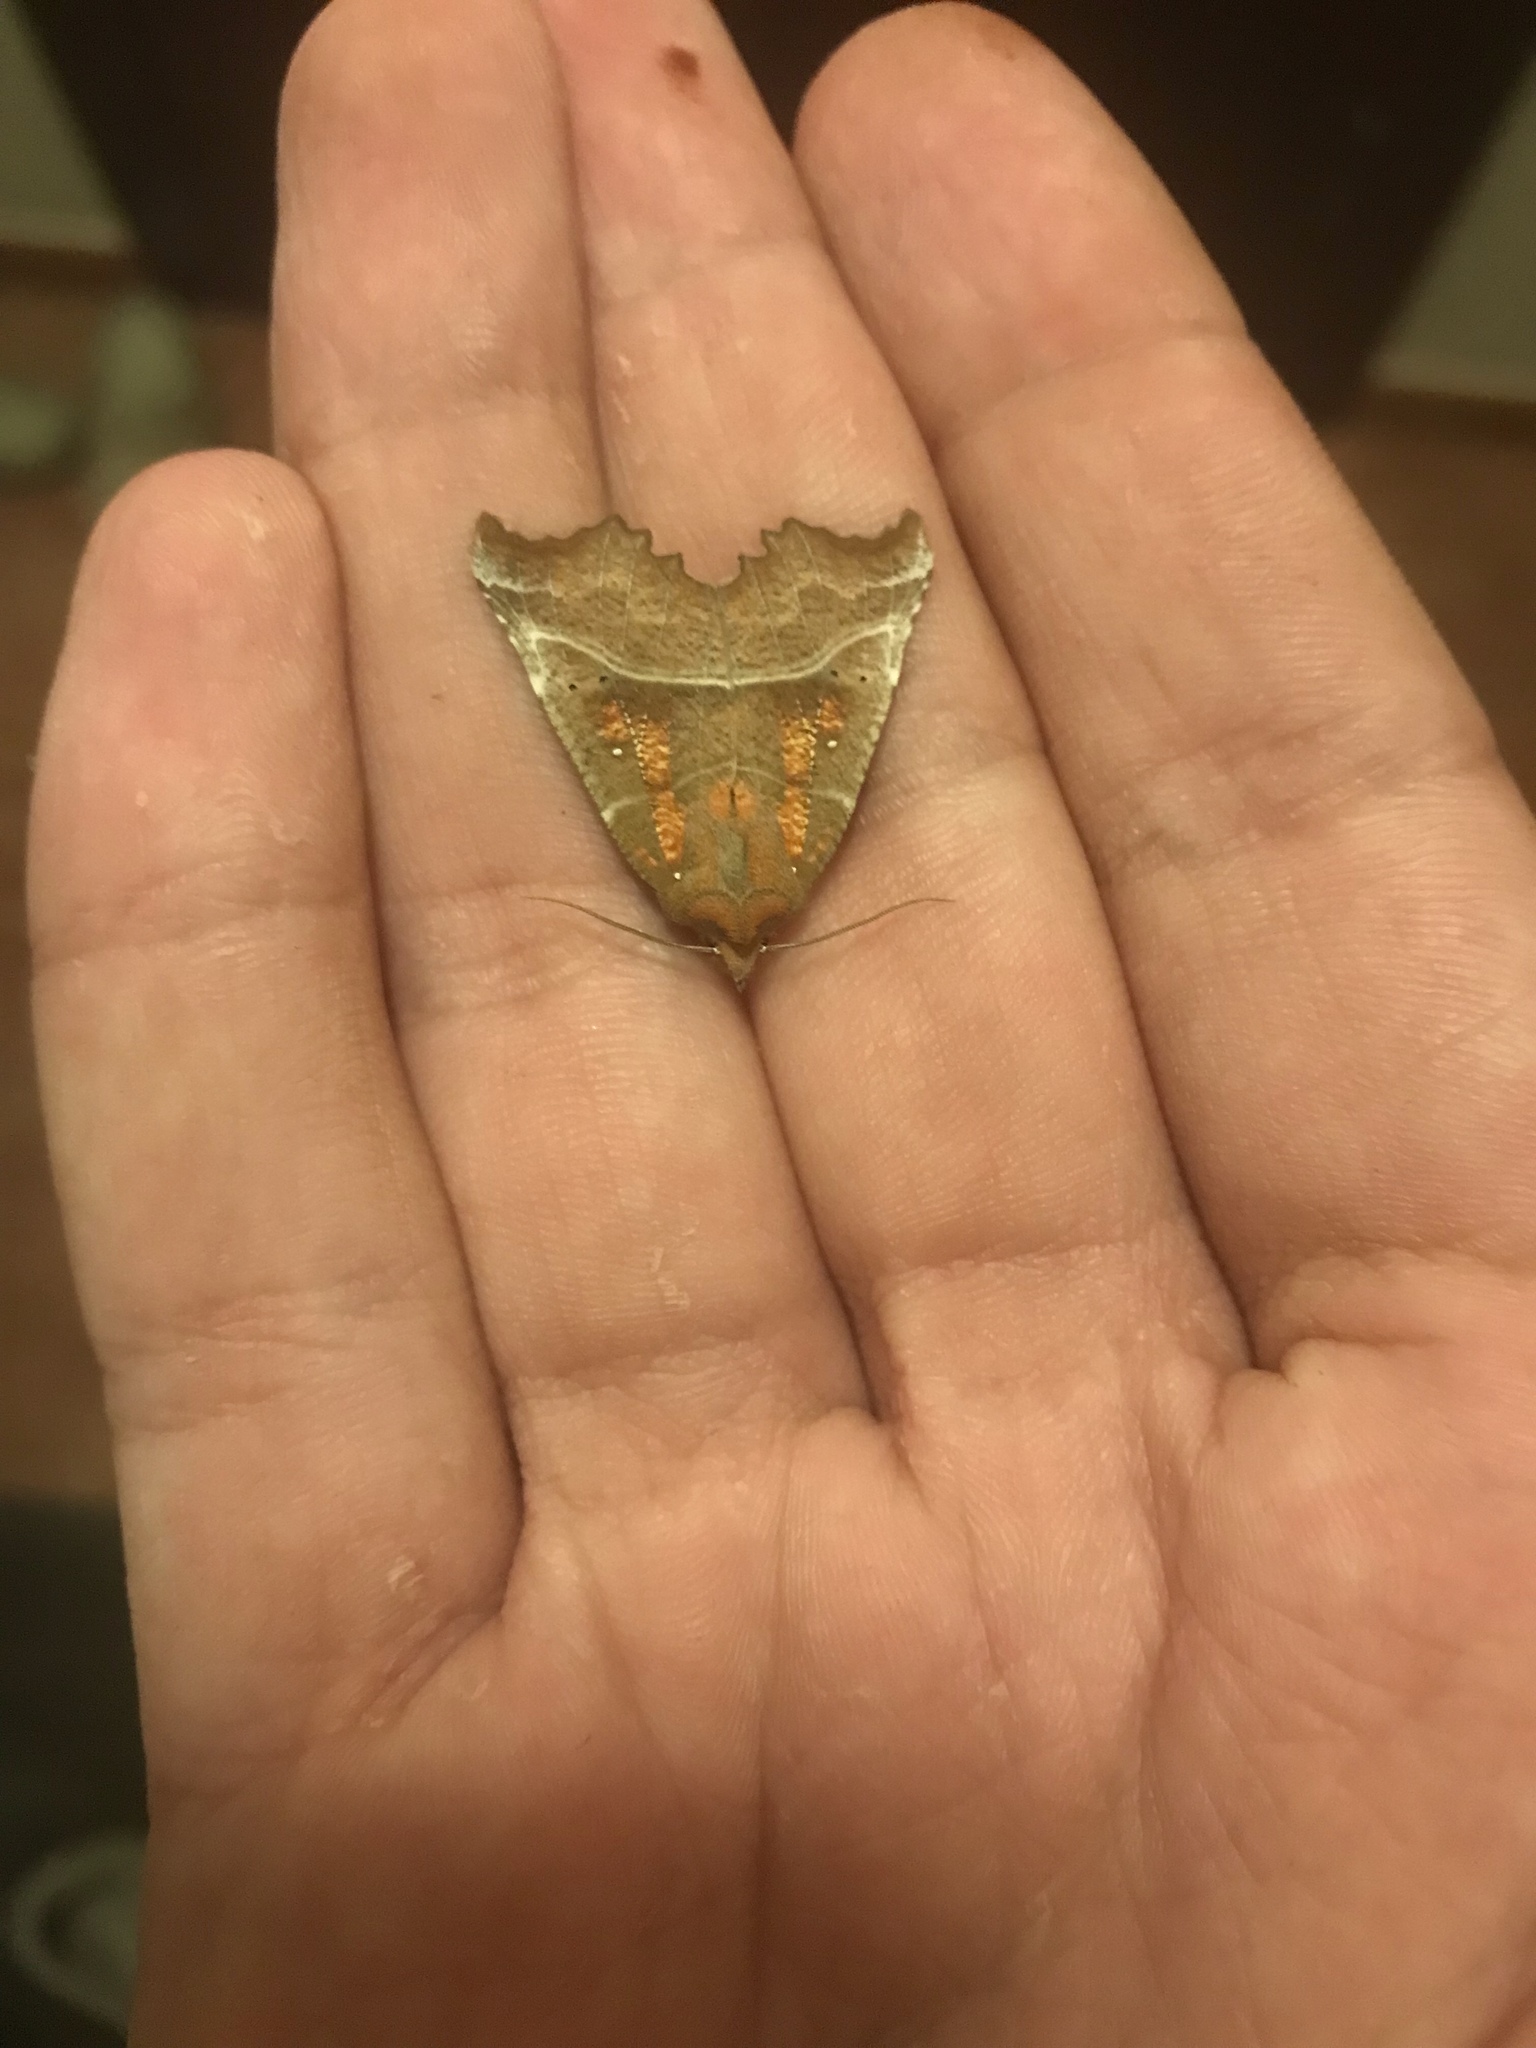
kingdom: Animalia
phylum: Arthropoda
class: Insecta
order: Lepidoptera
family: Erebidae
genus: Scoliopteryx
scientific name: Scoliopteryx libatrix
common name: Herald
